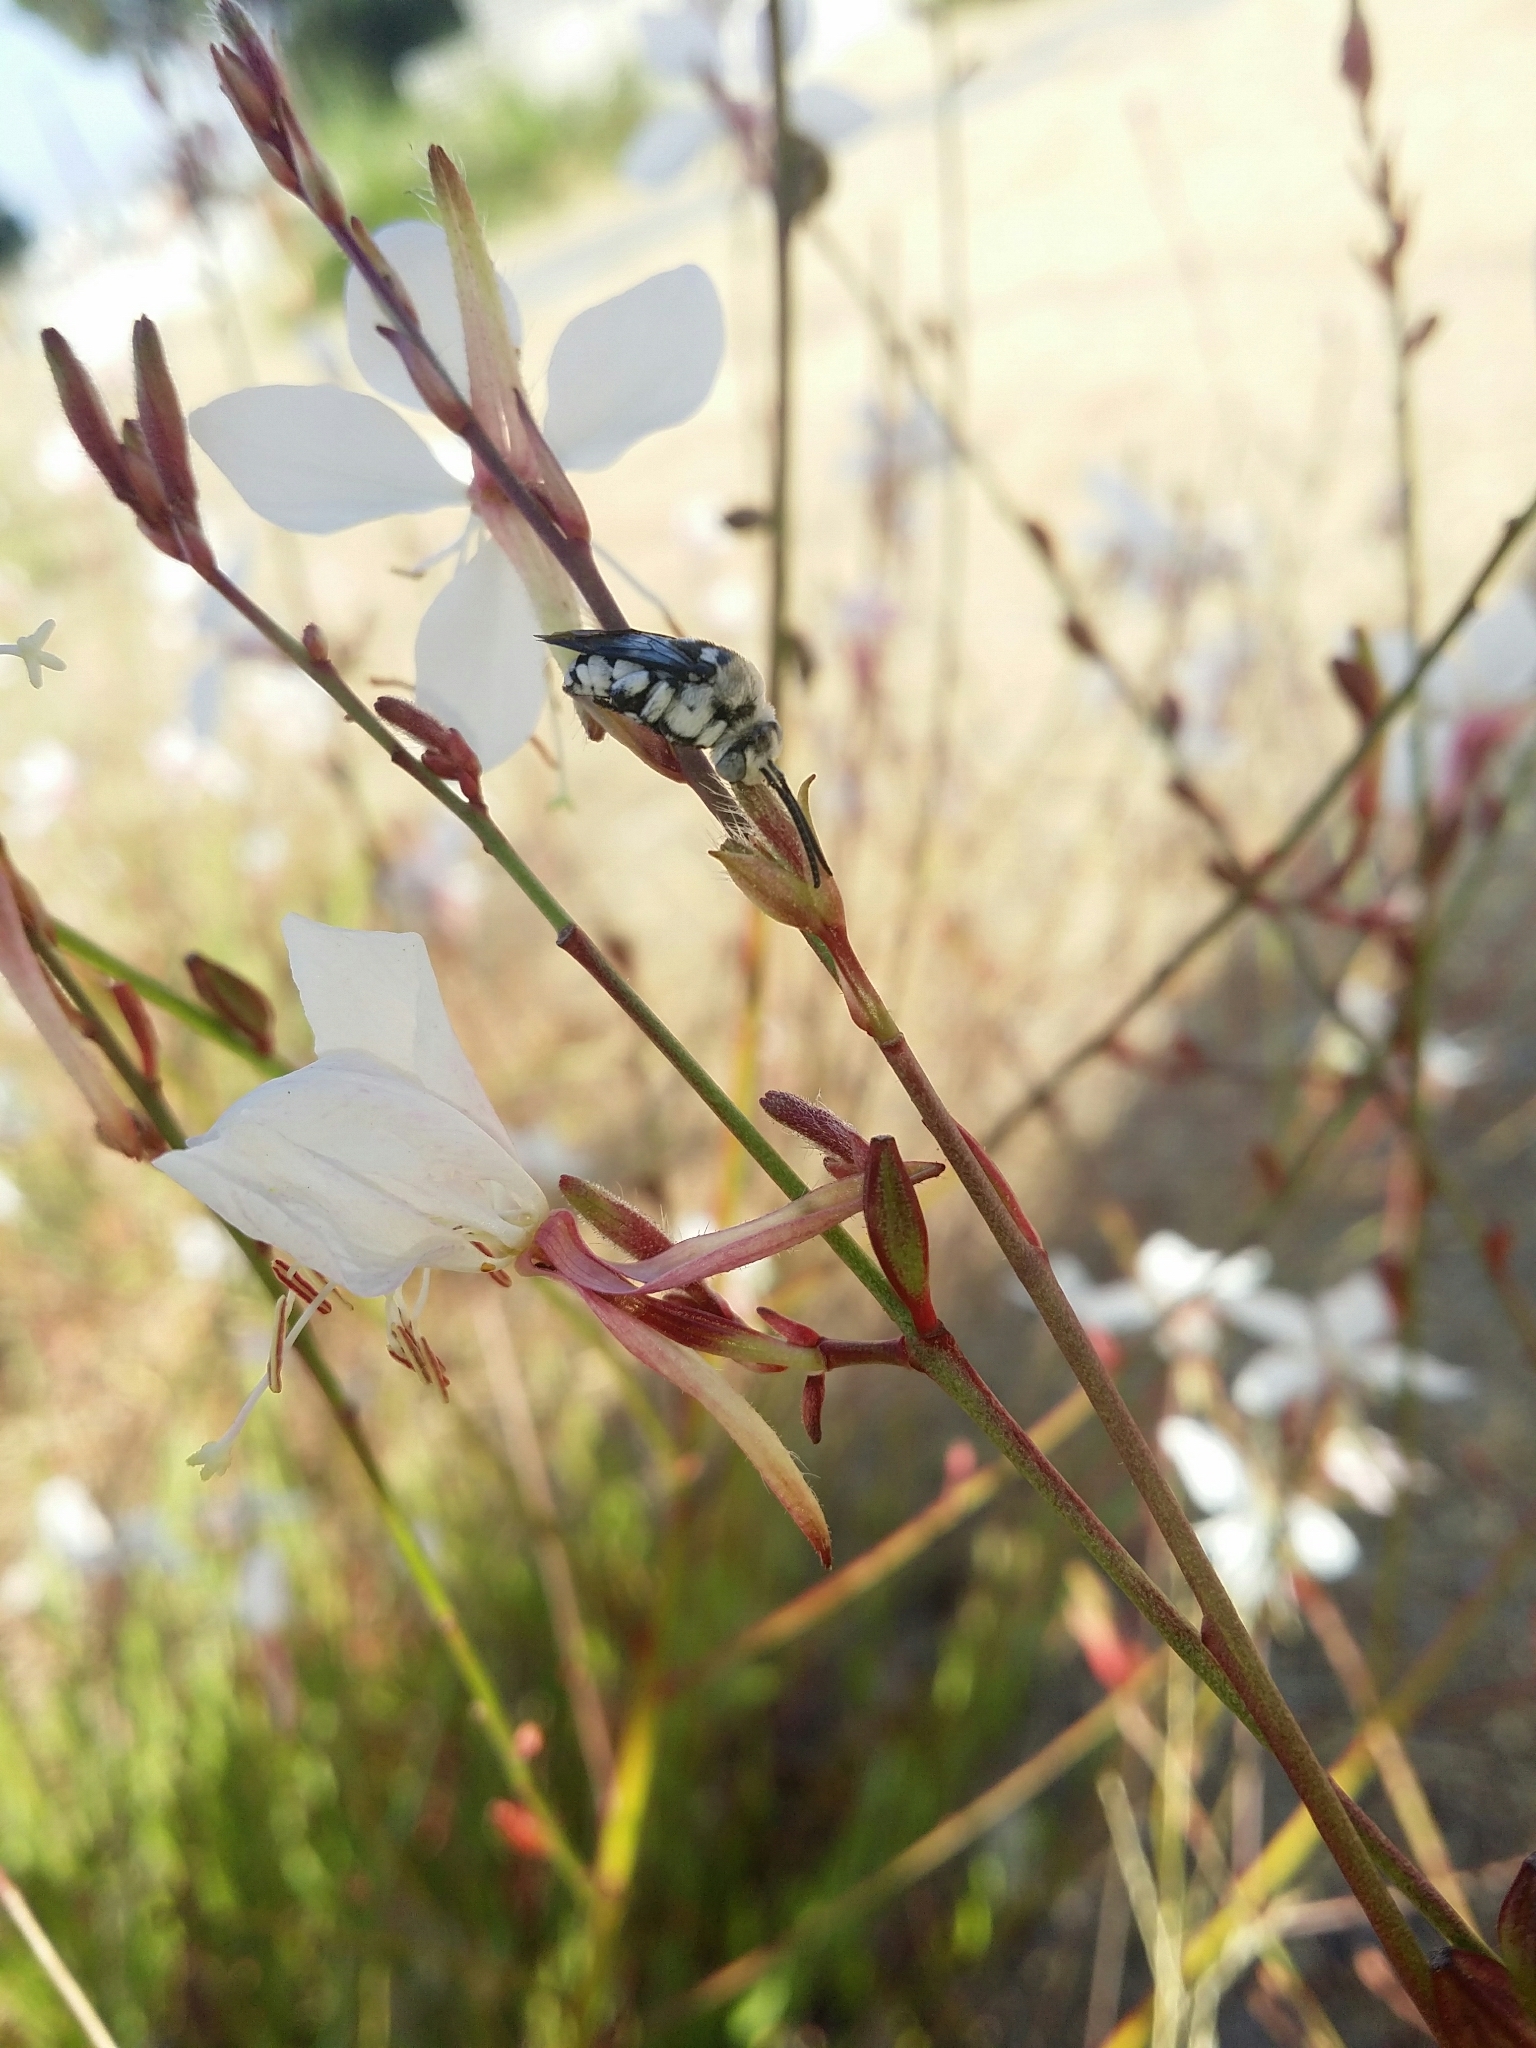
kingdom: Animalia
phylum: Arthropoda
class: Insecta
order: Hymenoptera
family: Apidae
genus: Thyreus
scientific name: Thyreus waroonensis
